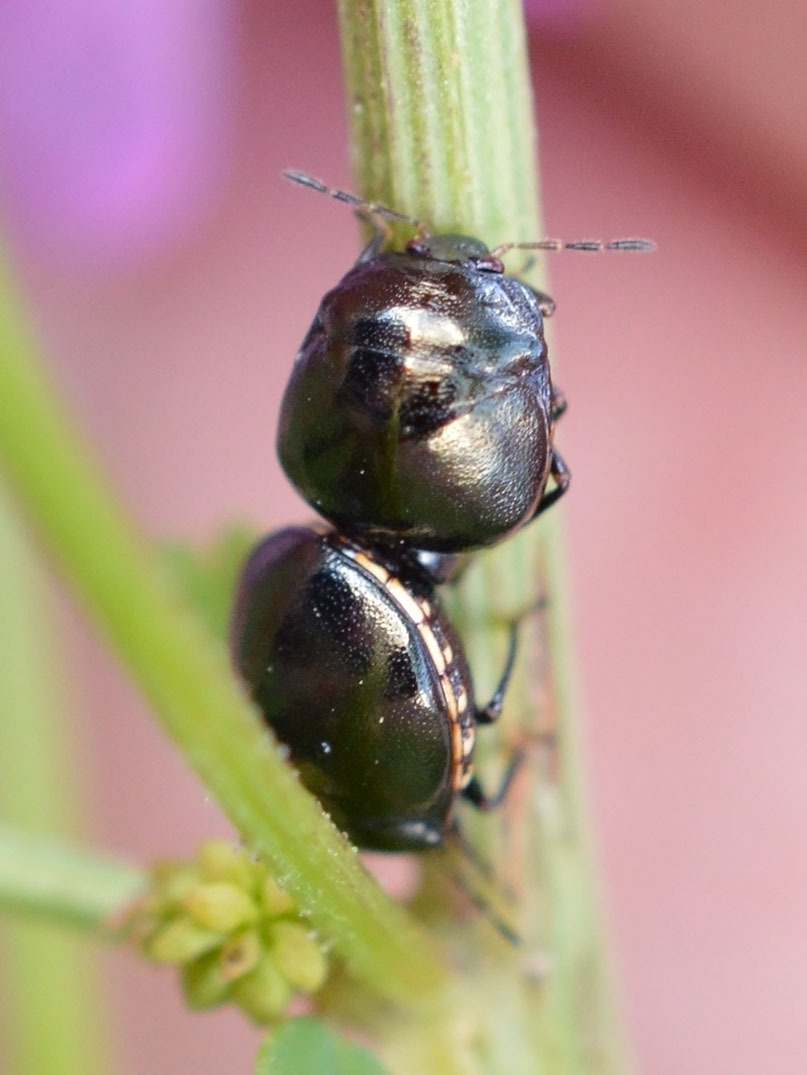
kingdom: Animalia
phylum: Arthropoda
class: Insecta
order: Hemiptera
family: Plataspidae
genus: Coptosoma
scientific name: Coptosoma scutellatum
